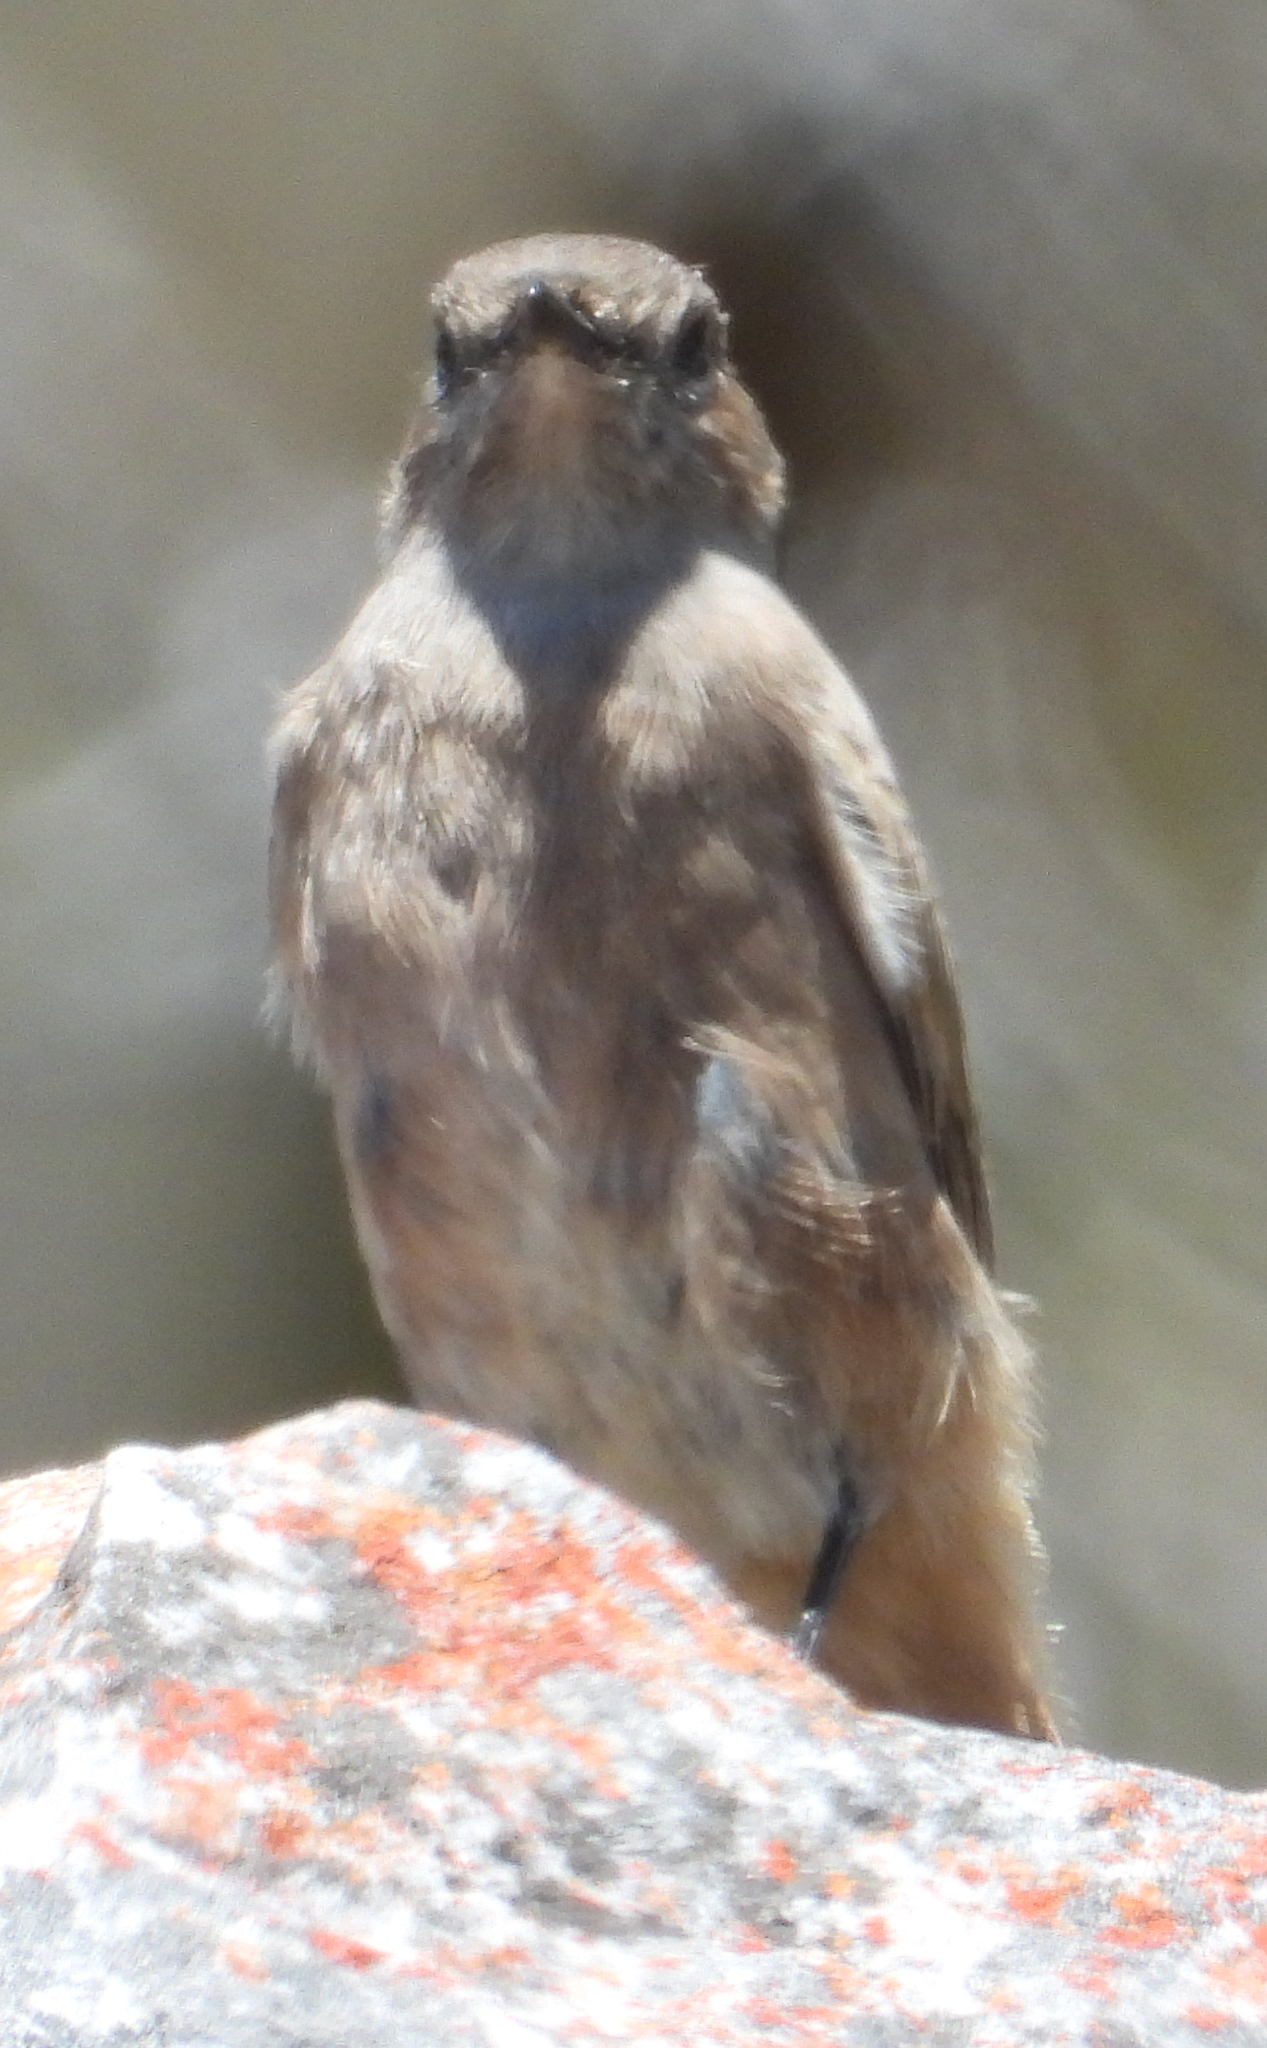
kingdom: Animalia
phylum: Chordata
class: Aves
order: Passeriformes
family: Muscicapidae
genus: Oenanthe
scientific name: Oenanthe familiaris
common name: Familiar chat
